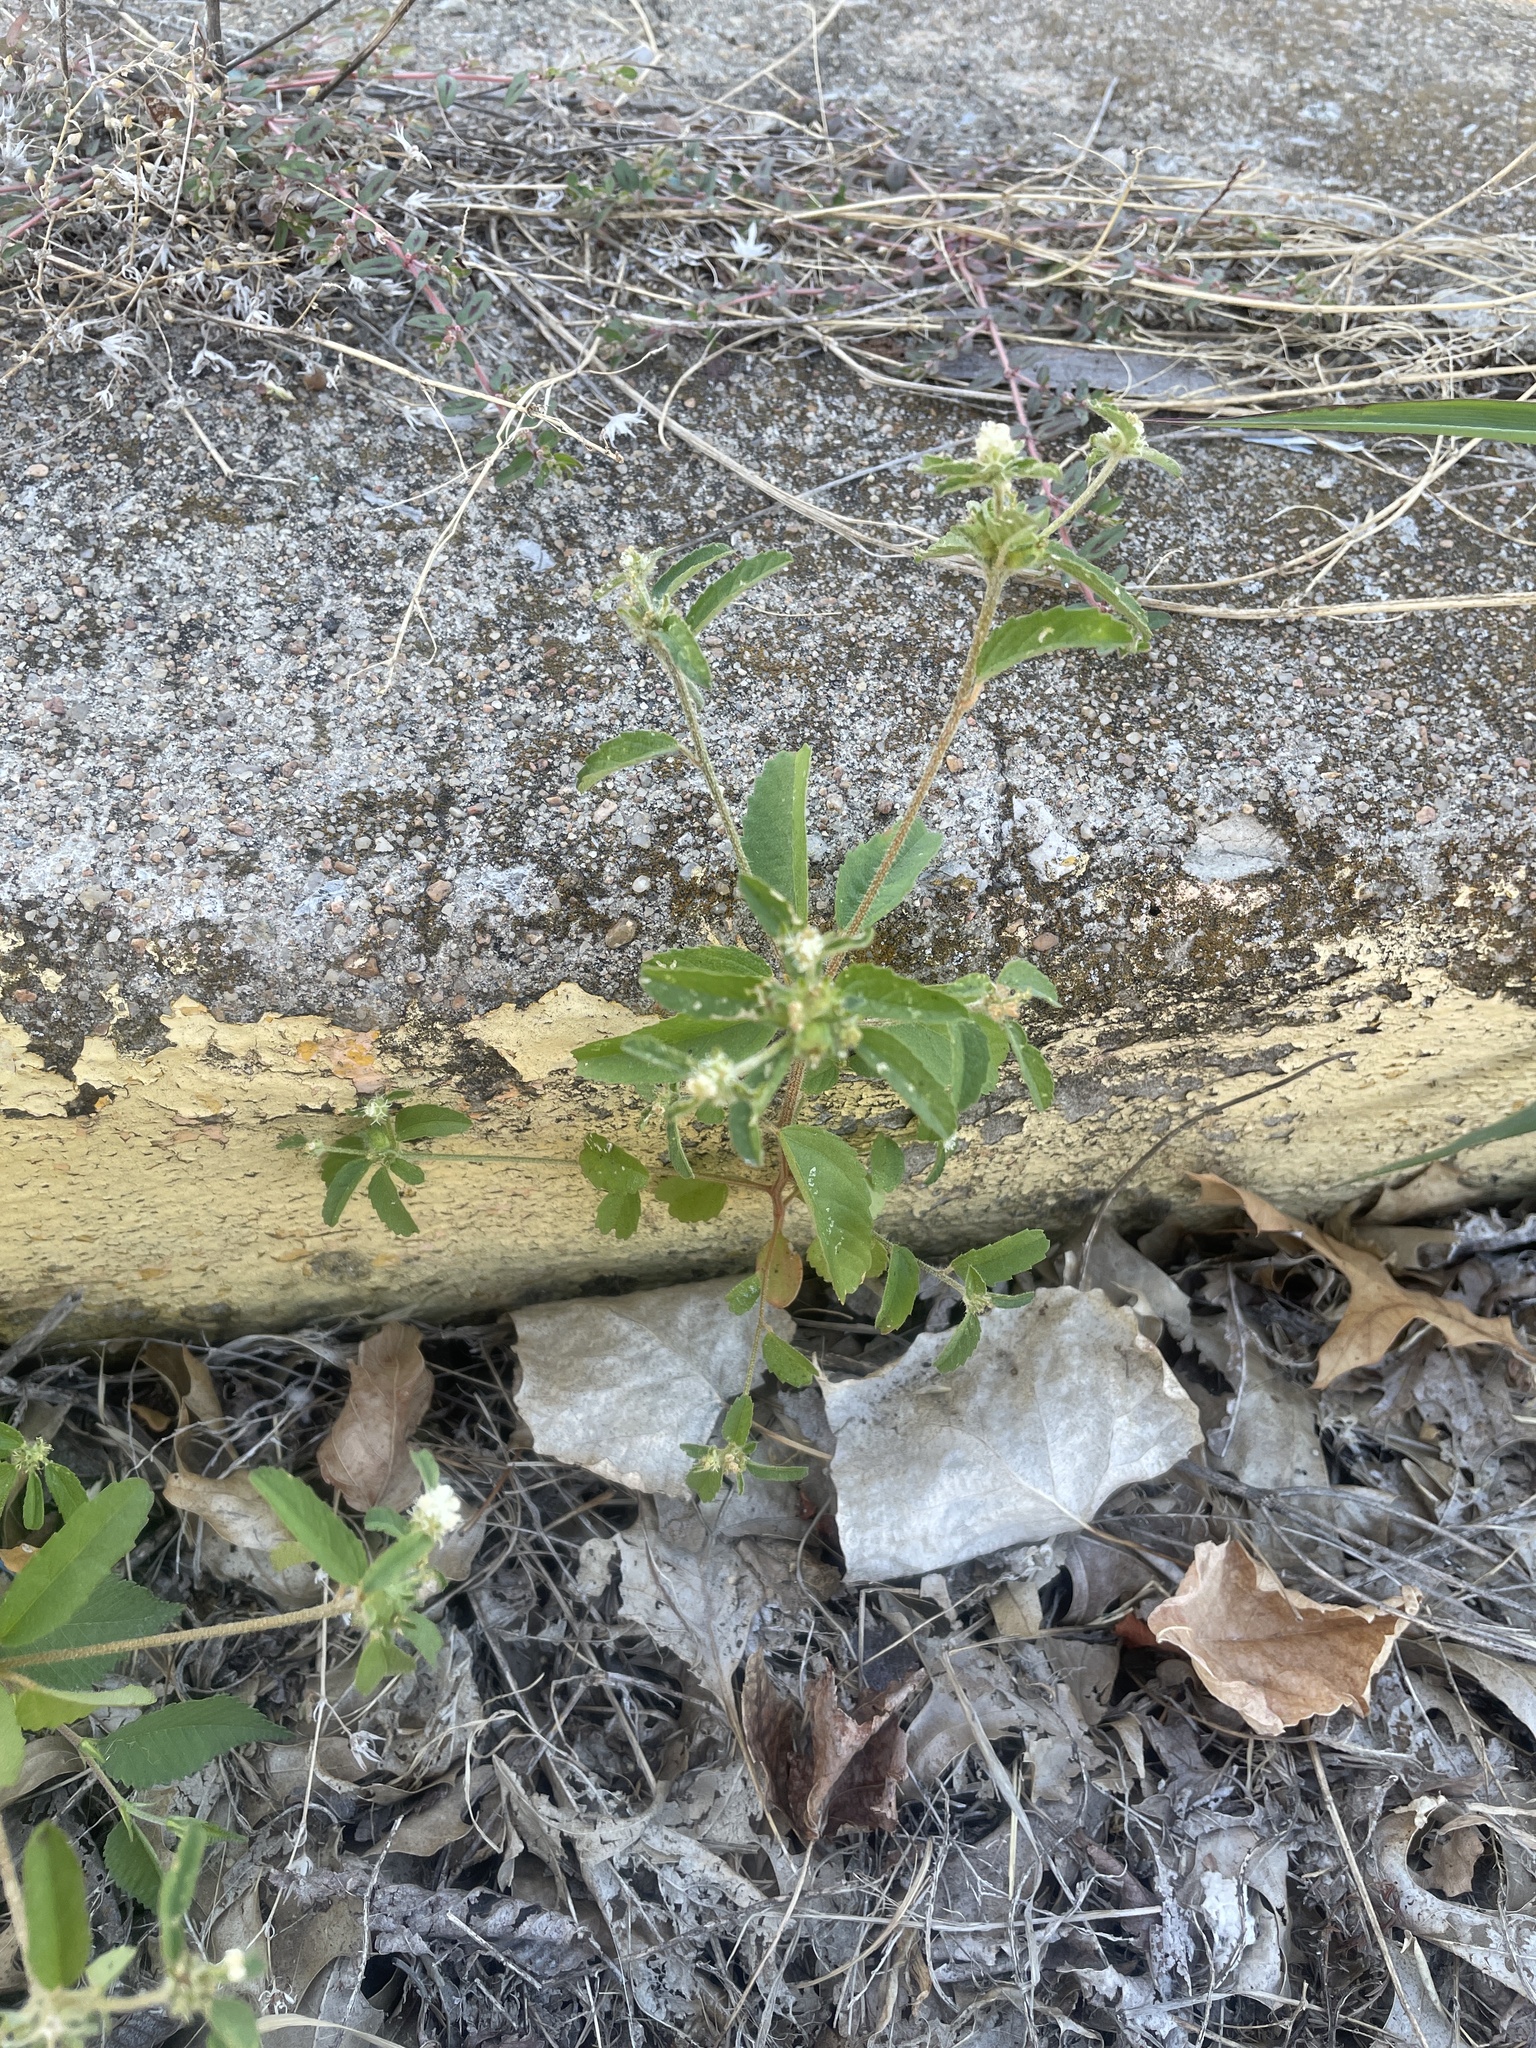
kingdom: Plantae
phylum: Tracheophyta
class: Magnoliopsida
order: Malpighiales
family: Euphorbiaceae
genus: Croton
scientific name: Croton glandulosus
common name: Tropic croton
